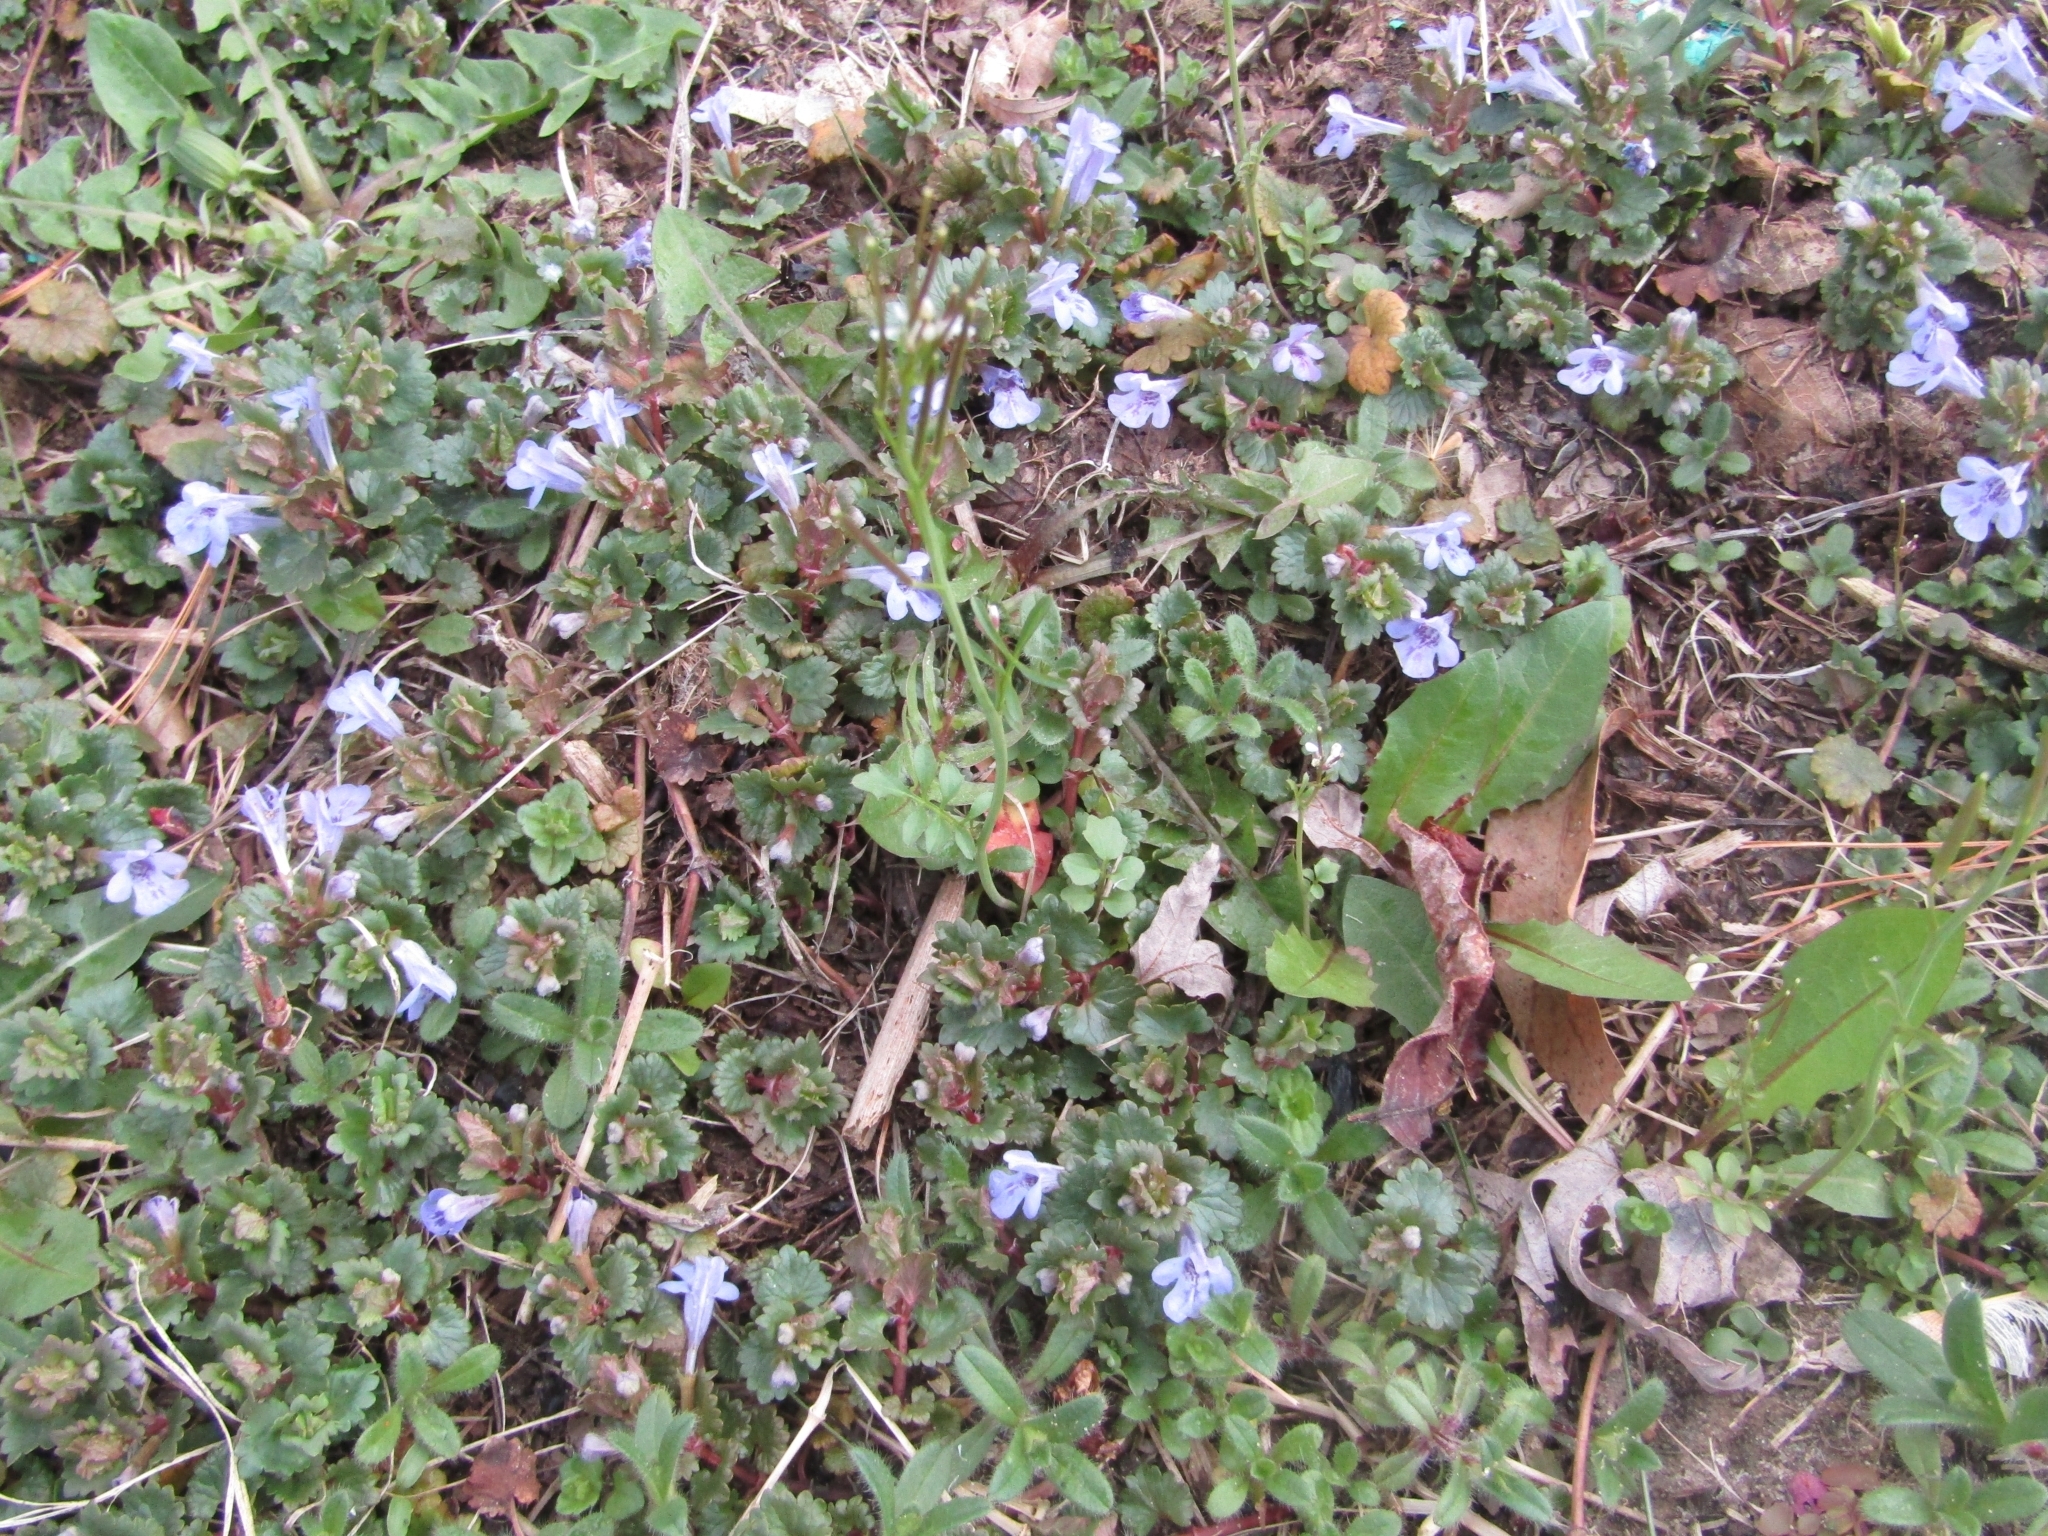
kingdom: Plantae
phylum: Tracheophyta
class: Magnoliopsida
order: Lamiales
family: Lamiaceae
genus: Glechoma
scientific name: Glechoma hederacea
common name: Ground ivy
